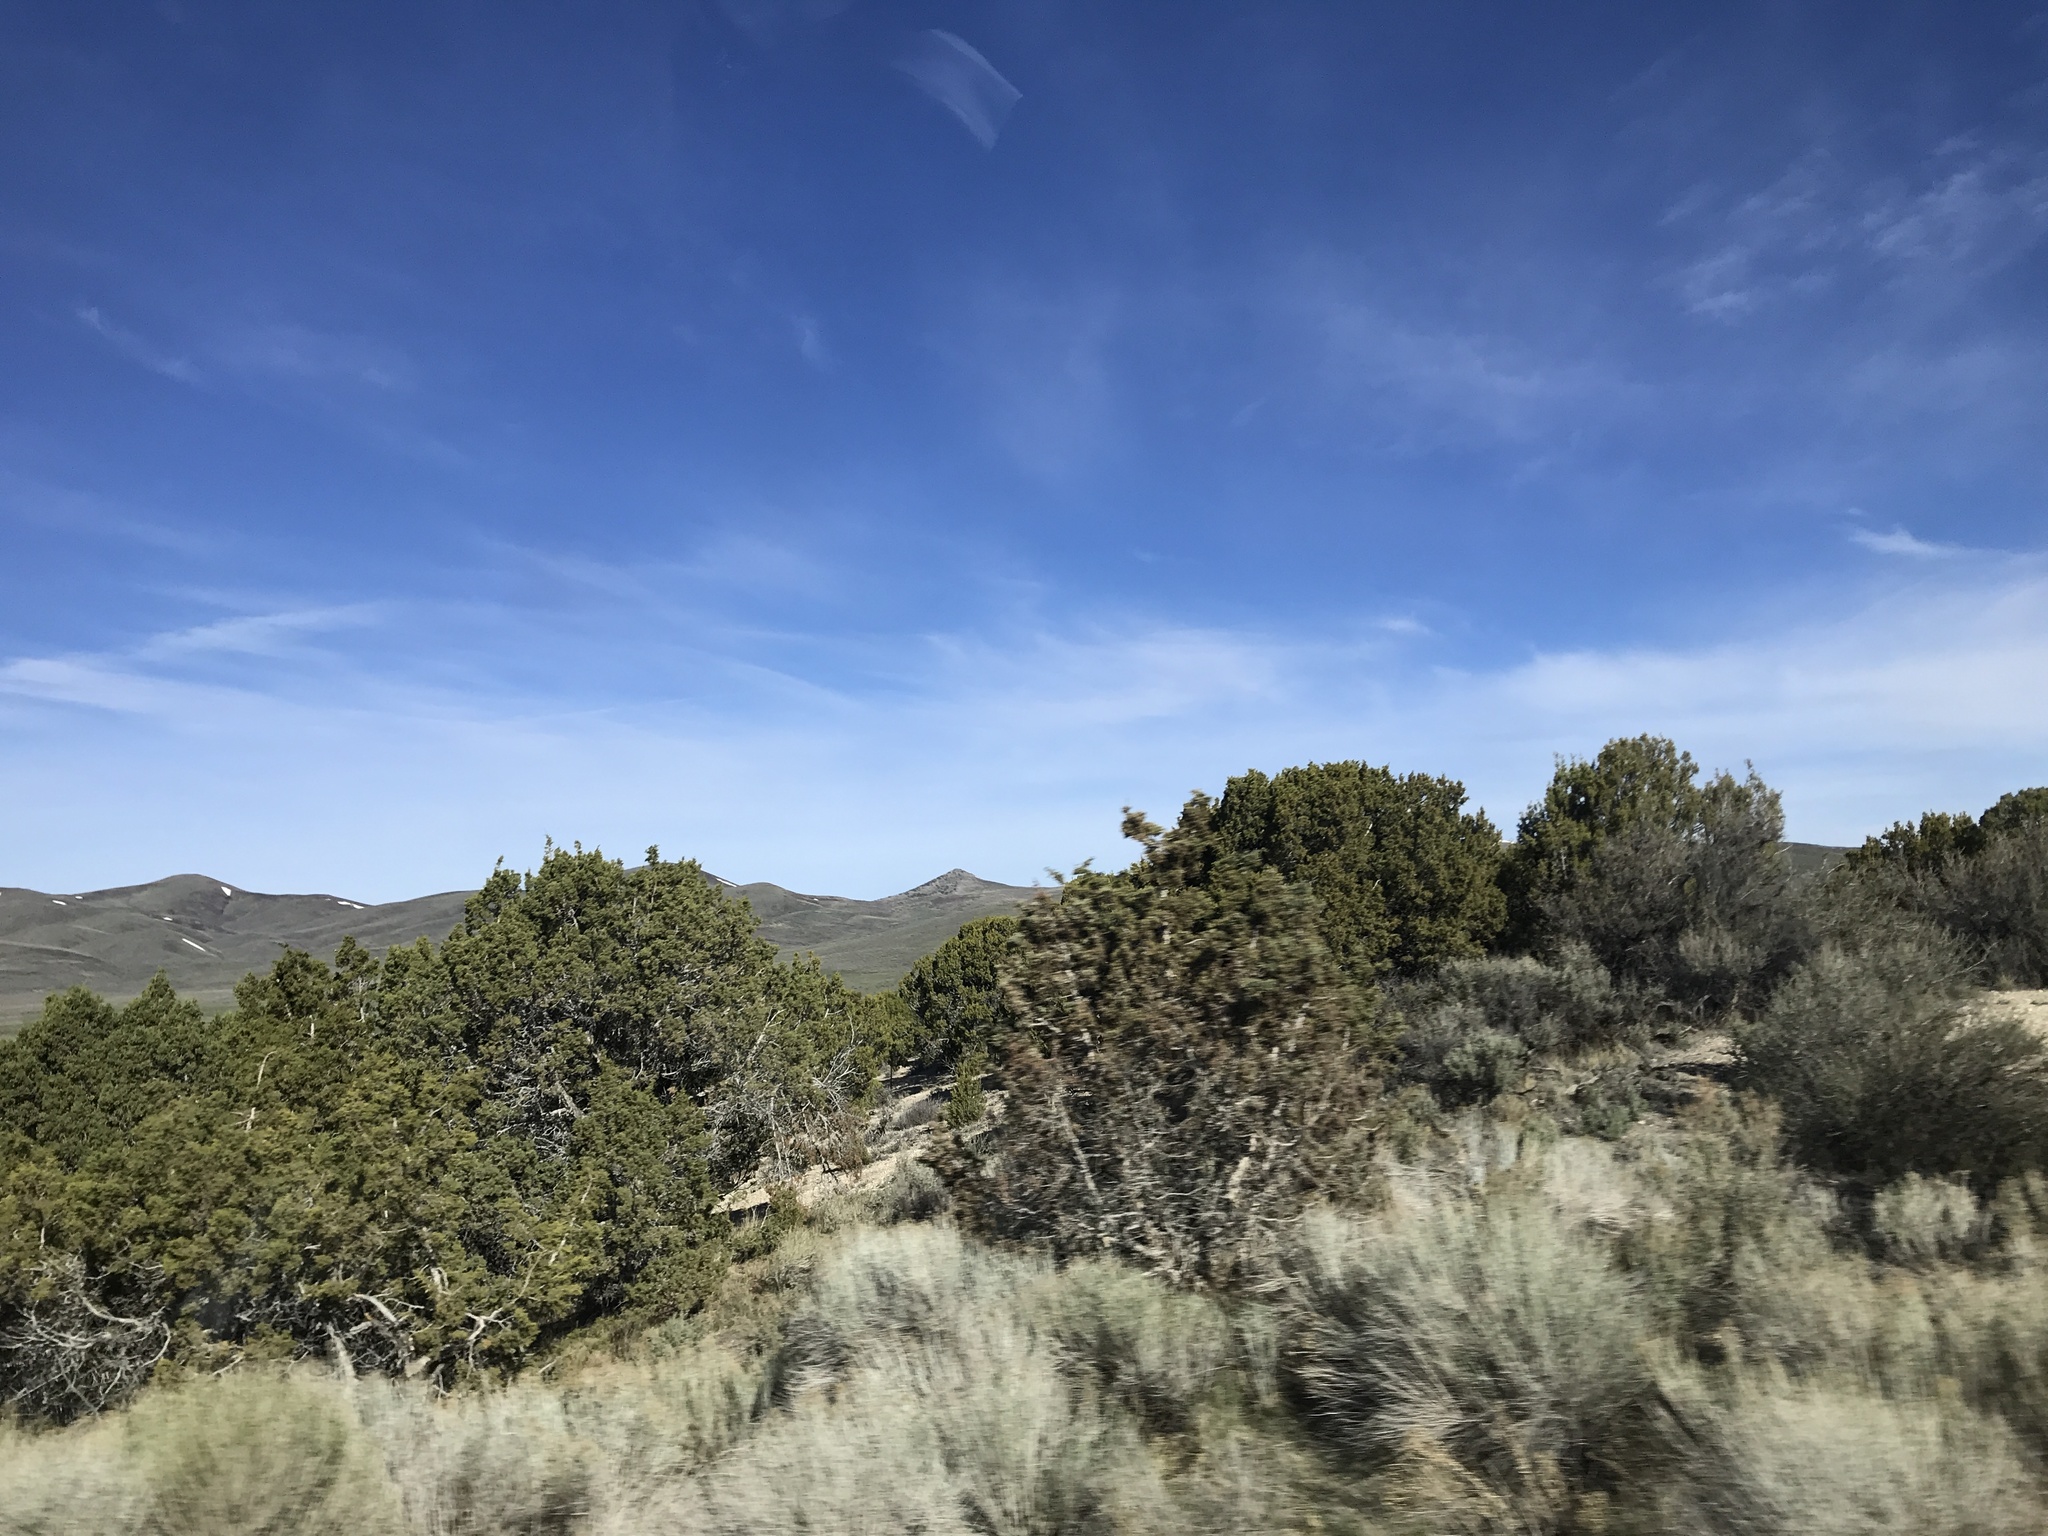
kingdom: Plantae
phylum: Tracheophyta
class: Pinopsida
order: Pinales
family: Cupressaceae
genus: Juniperus
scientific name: Juniperus osteosperma
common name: Utah juniper
